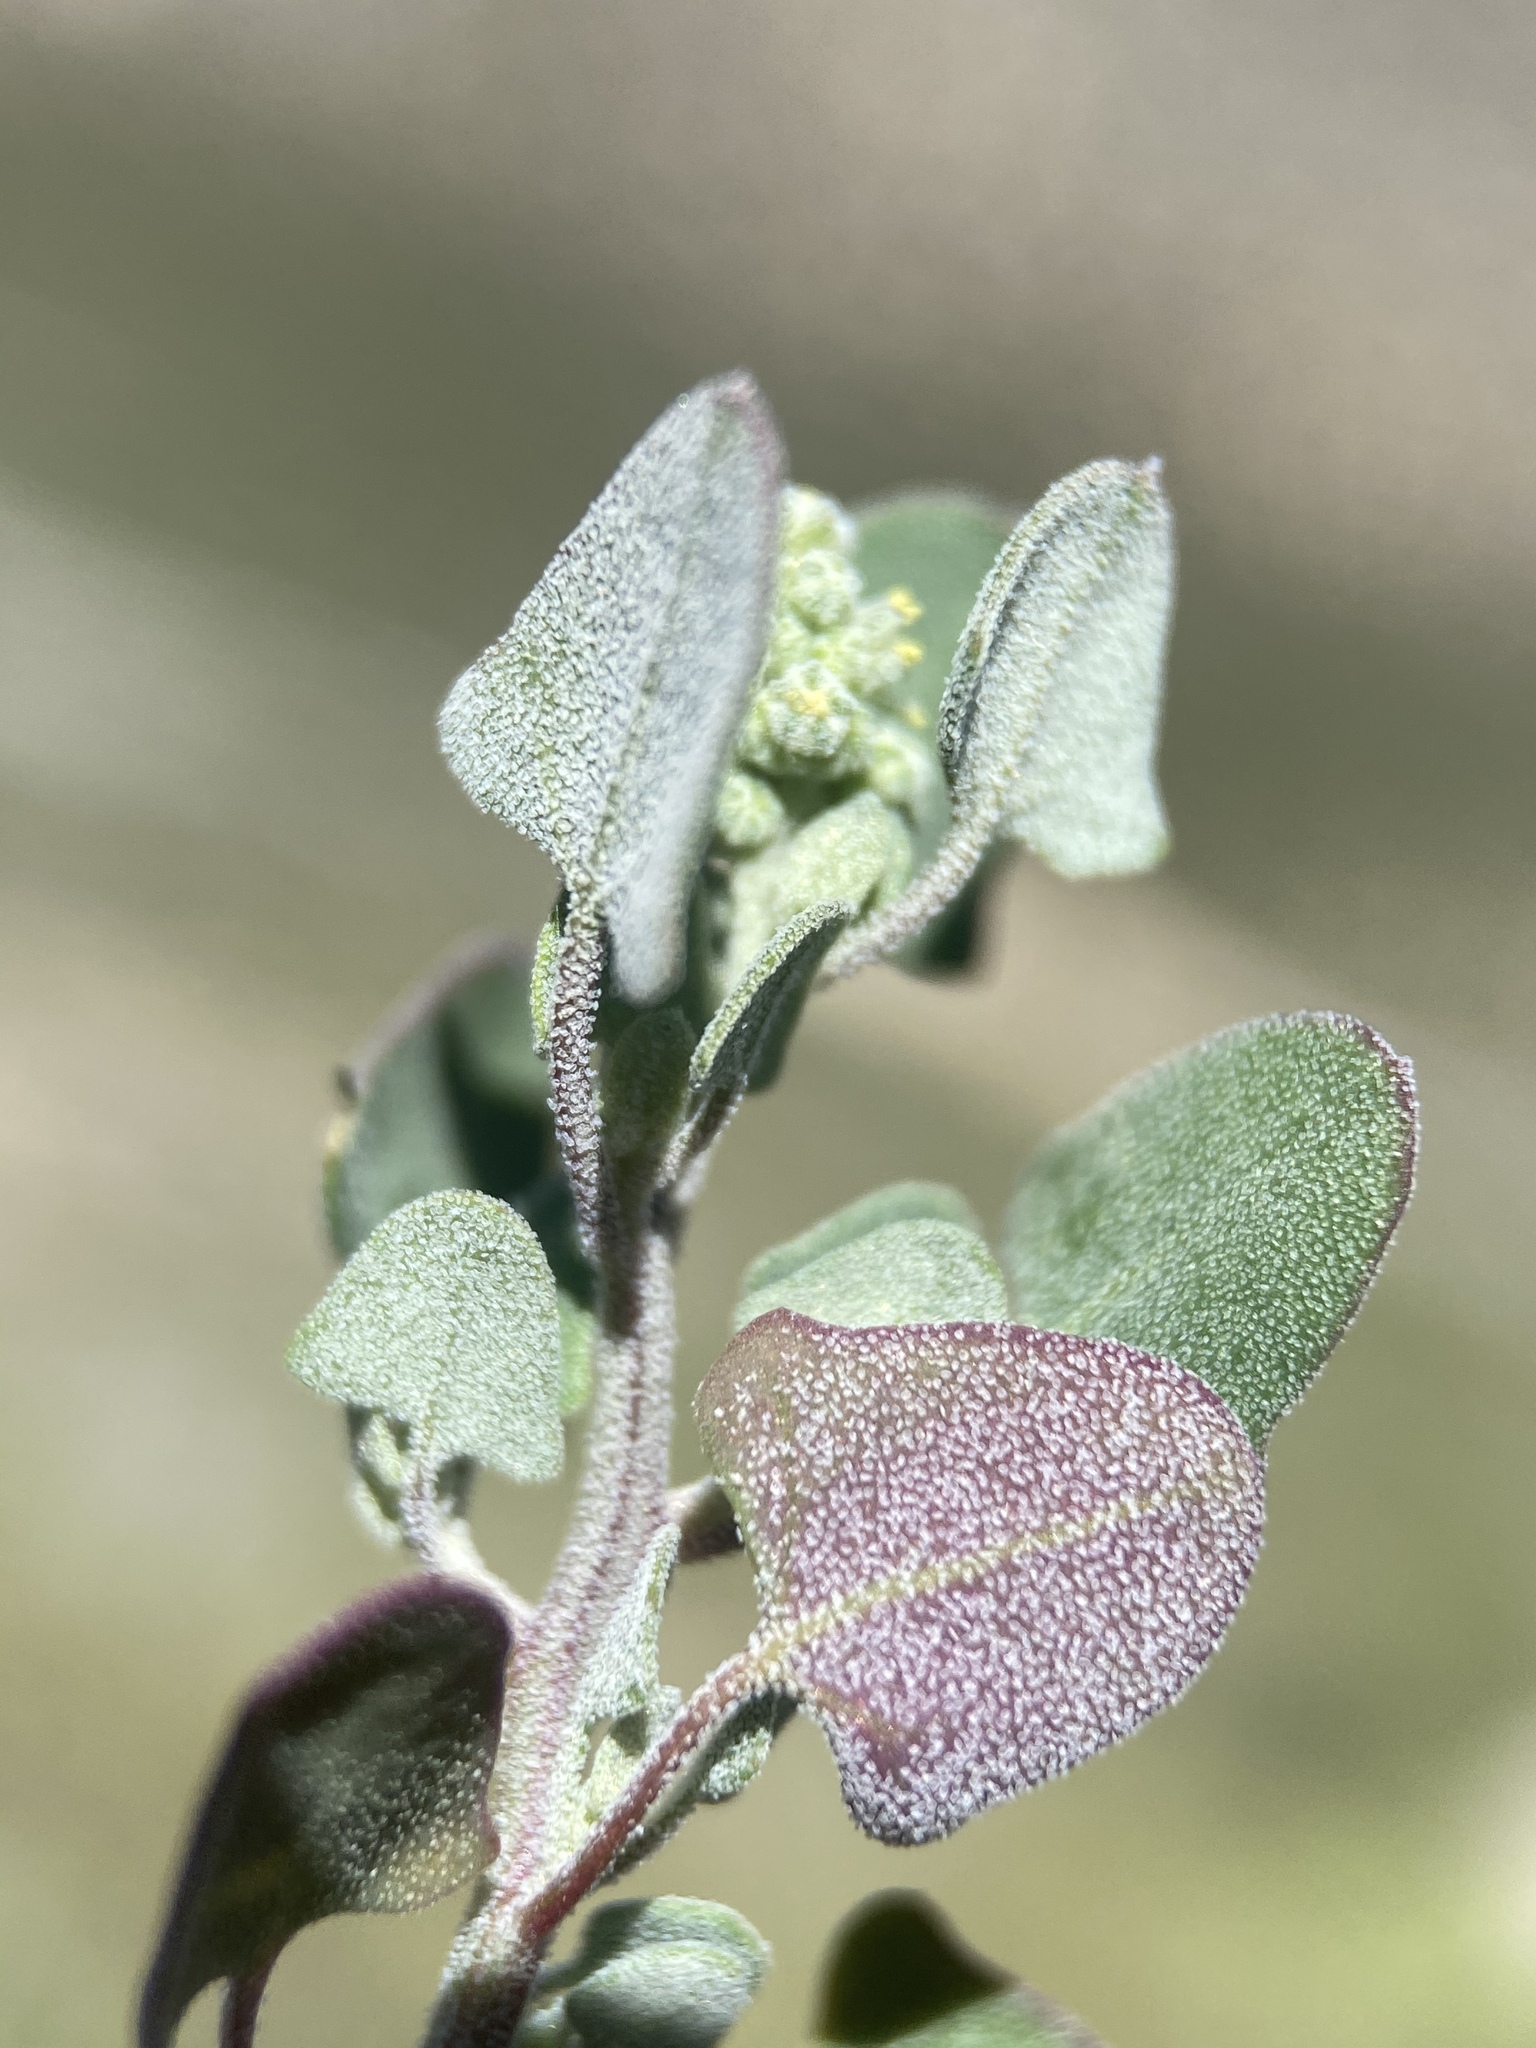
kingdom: Plantae
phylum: Tracheophyta
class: Magnoliopsida
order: Caryophyllales
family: Amaranthaceae
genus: Chenopodium
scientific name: Chenopodium incanum
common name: Hoary goosefoot
